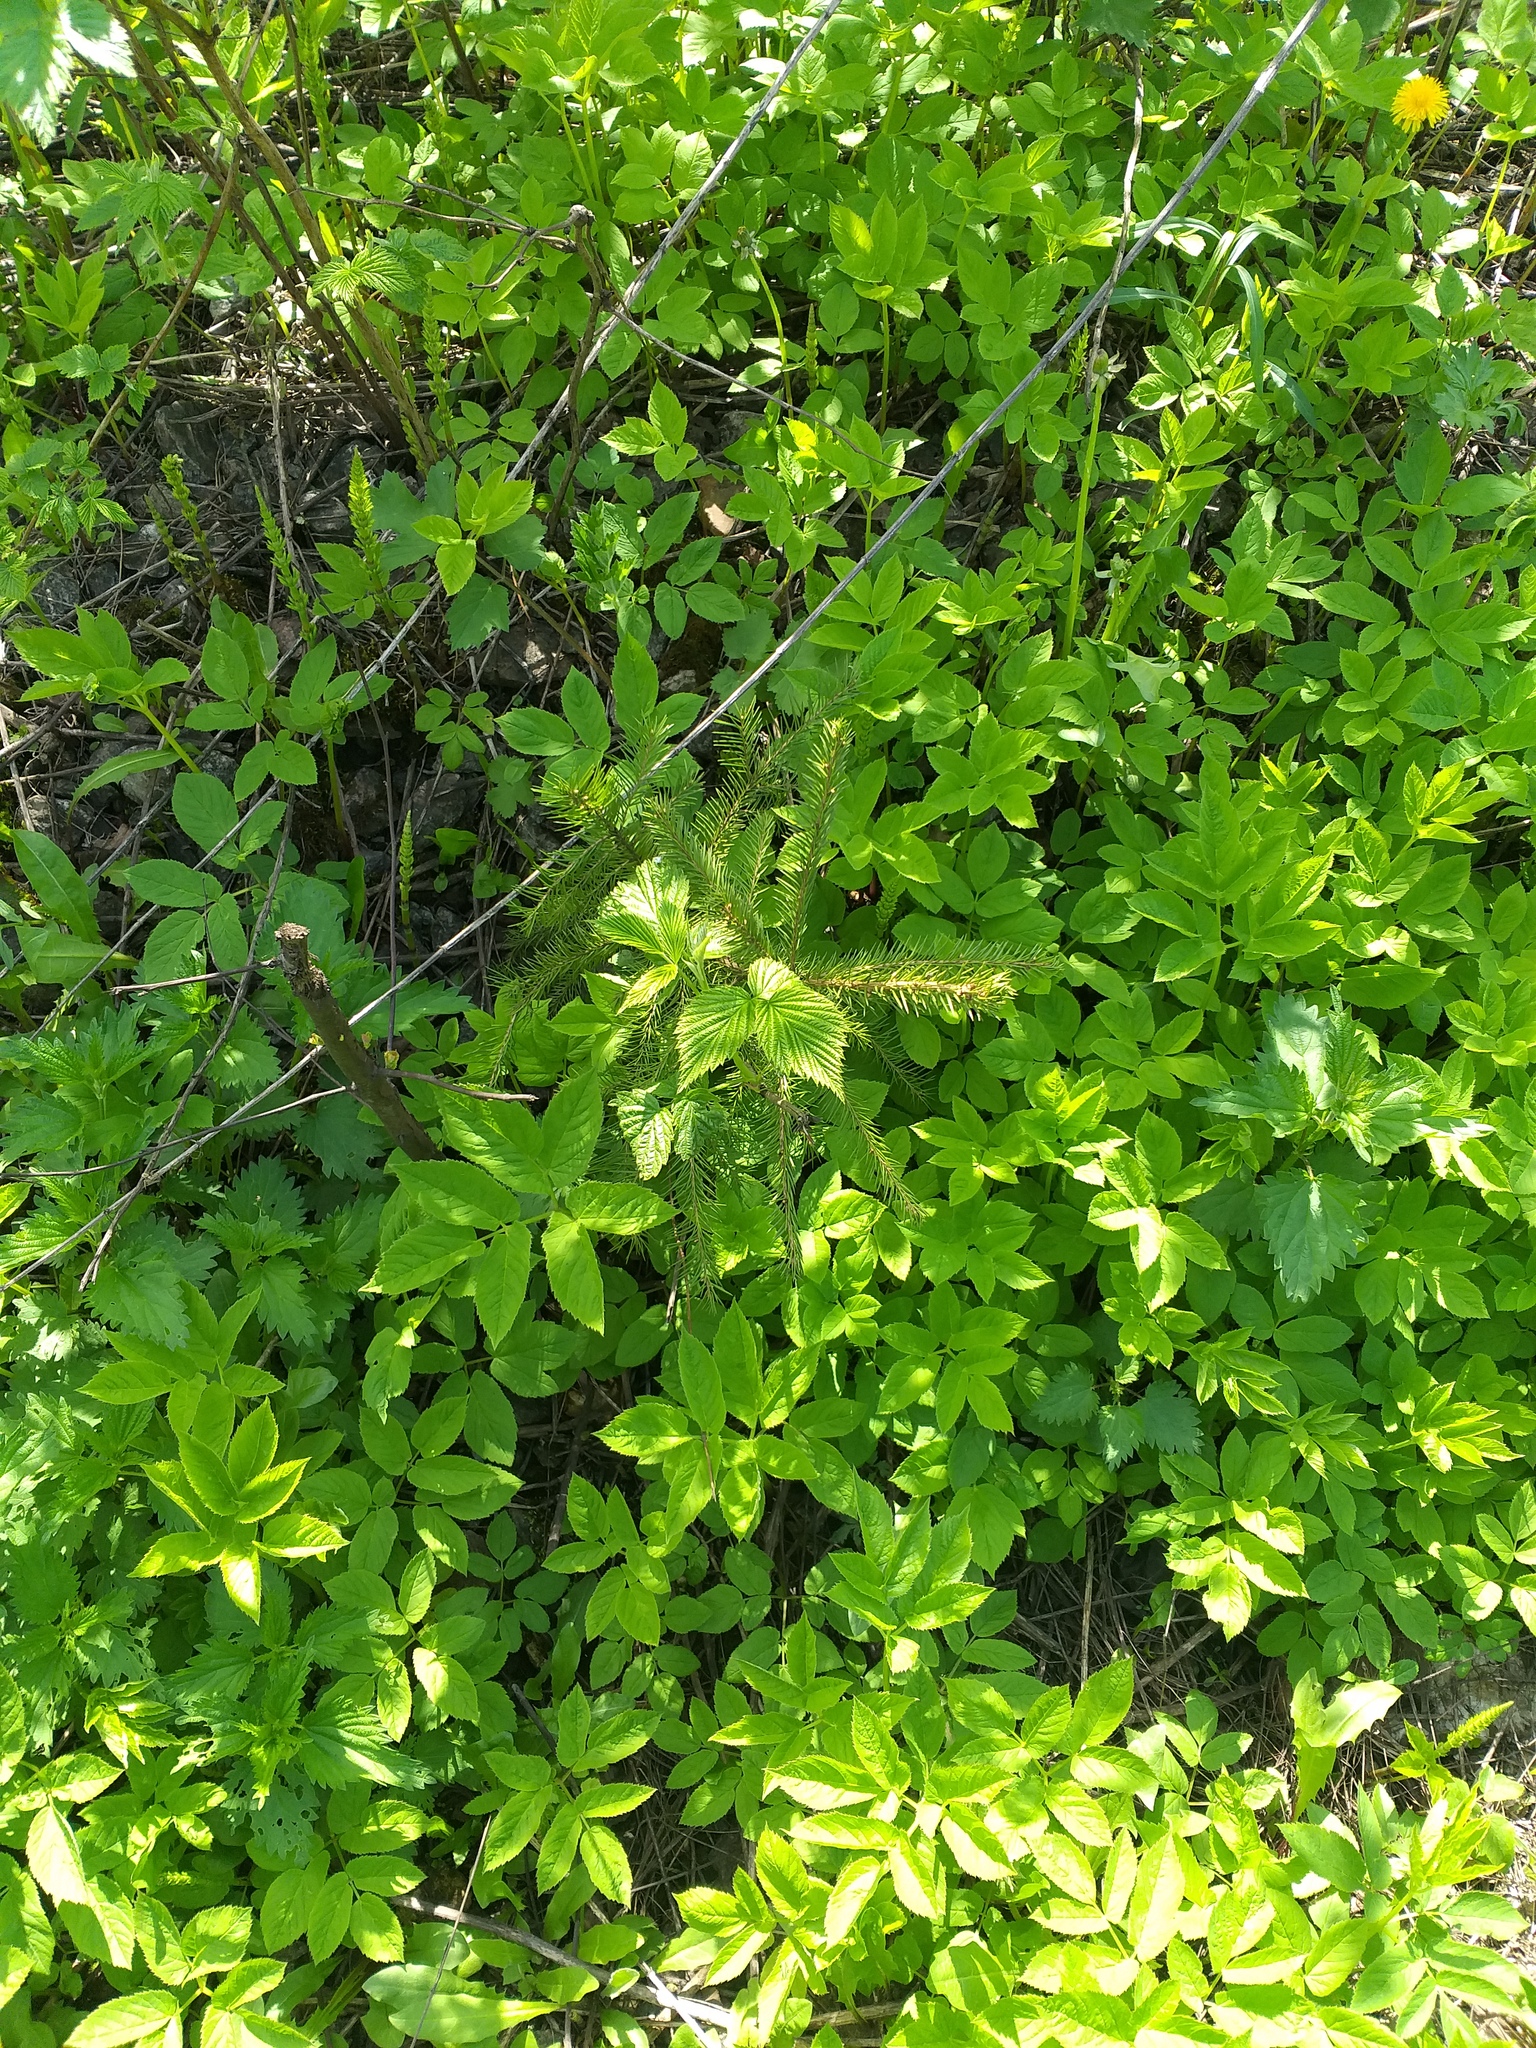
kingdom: Plantae
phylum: Tracheophyta
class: Pinopsida
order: Pinales
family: Pinaceae
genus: Picea
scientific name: Picea abies
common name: Norway spruce
